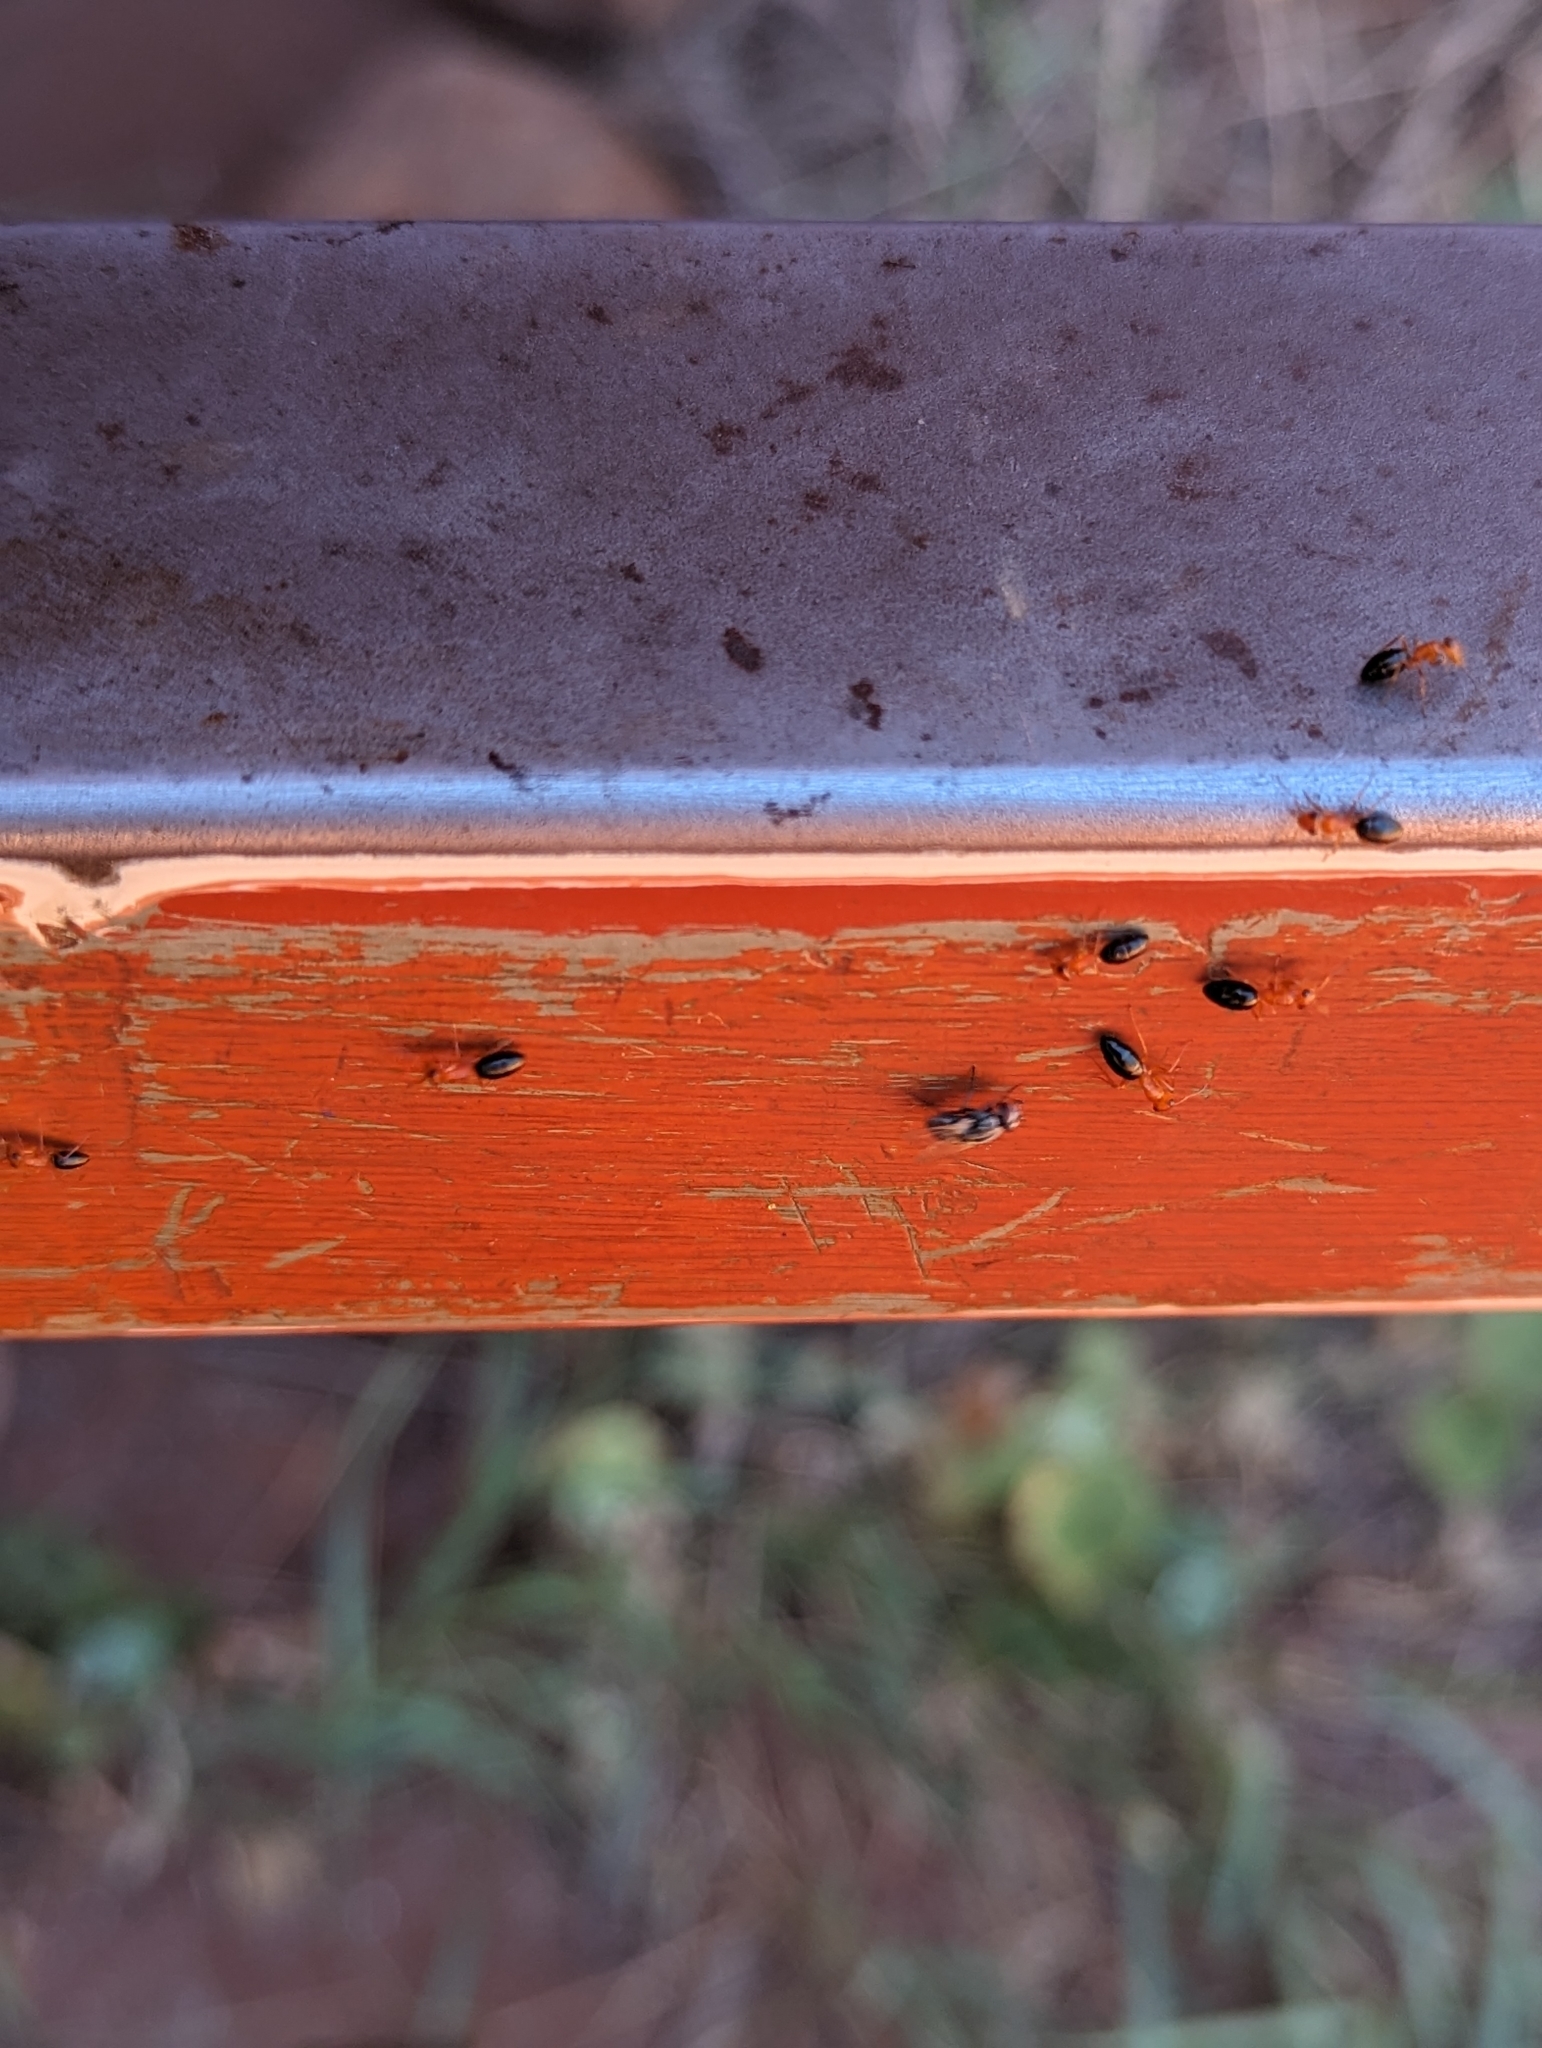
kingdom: Animalia
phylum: Arthropoda
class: Insecta
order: Hymenoptera
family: Formicidae
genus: Opisthopsis
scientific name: Opisthopsis haddoni
